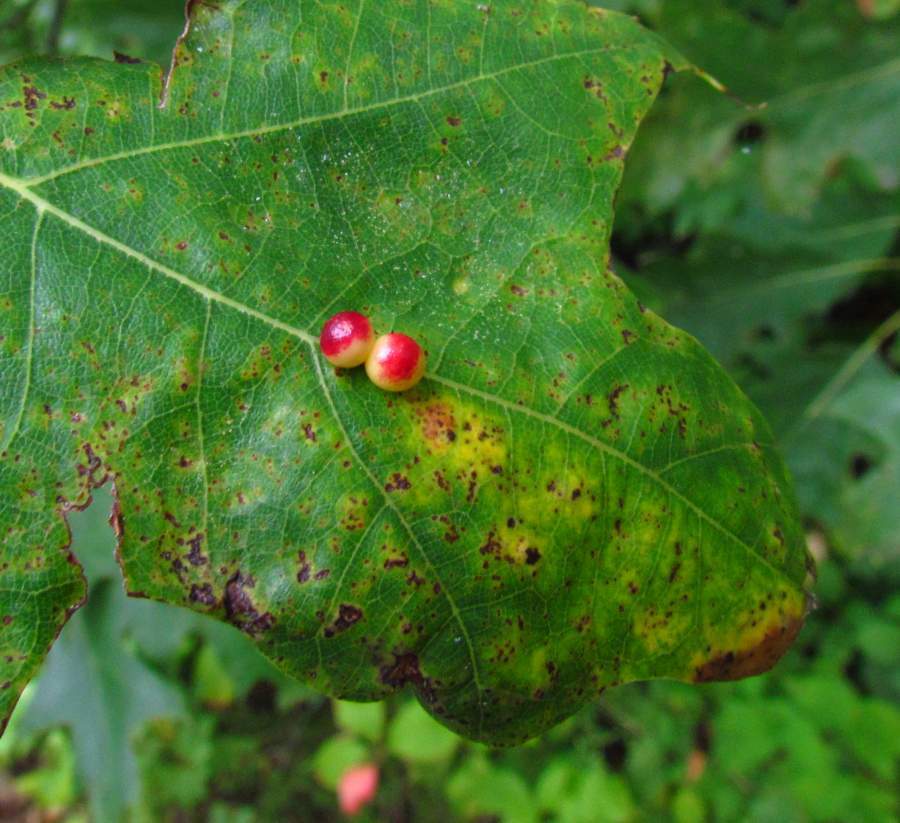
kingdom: Animalia
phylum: Arthropoda
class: Insecta
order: Hymenoptera
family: Cynipidae
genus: Zopheroteras
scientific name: Zopheroteras
